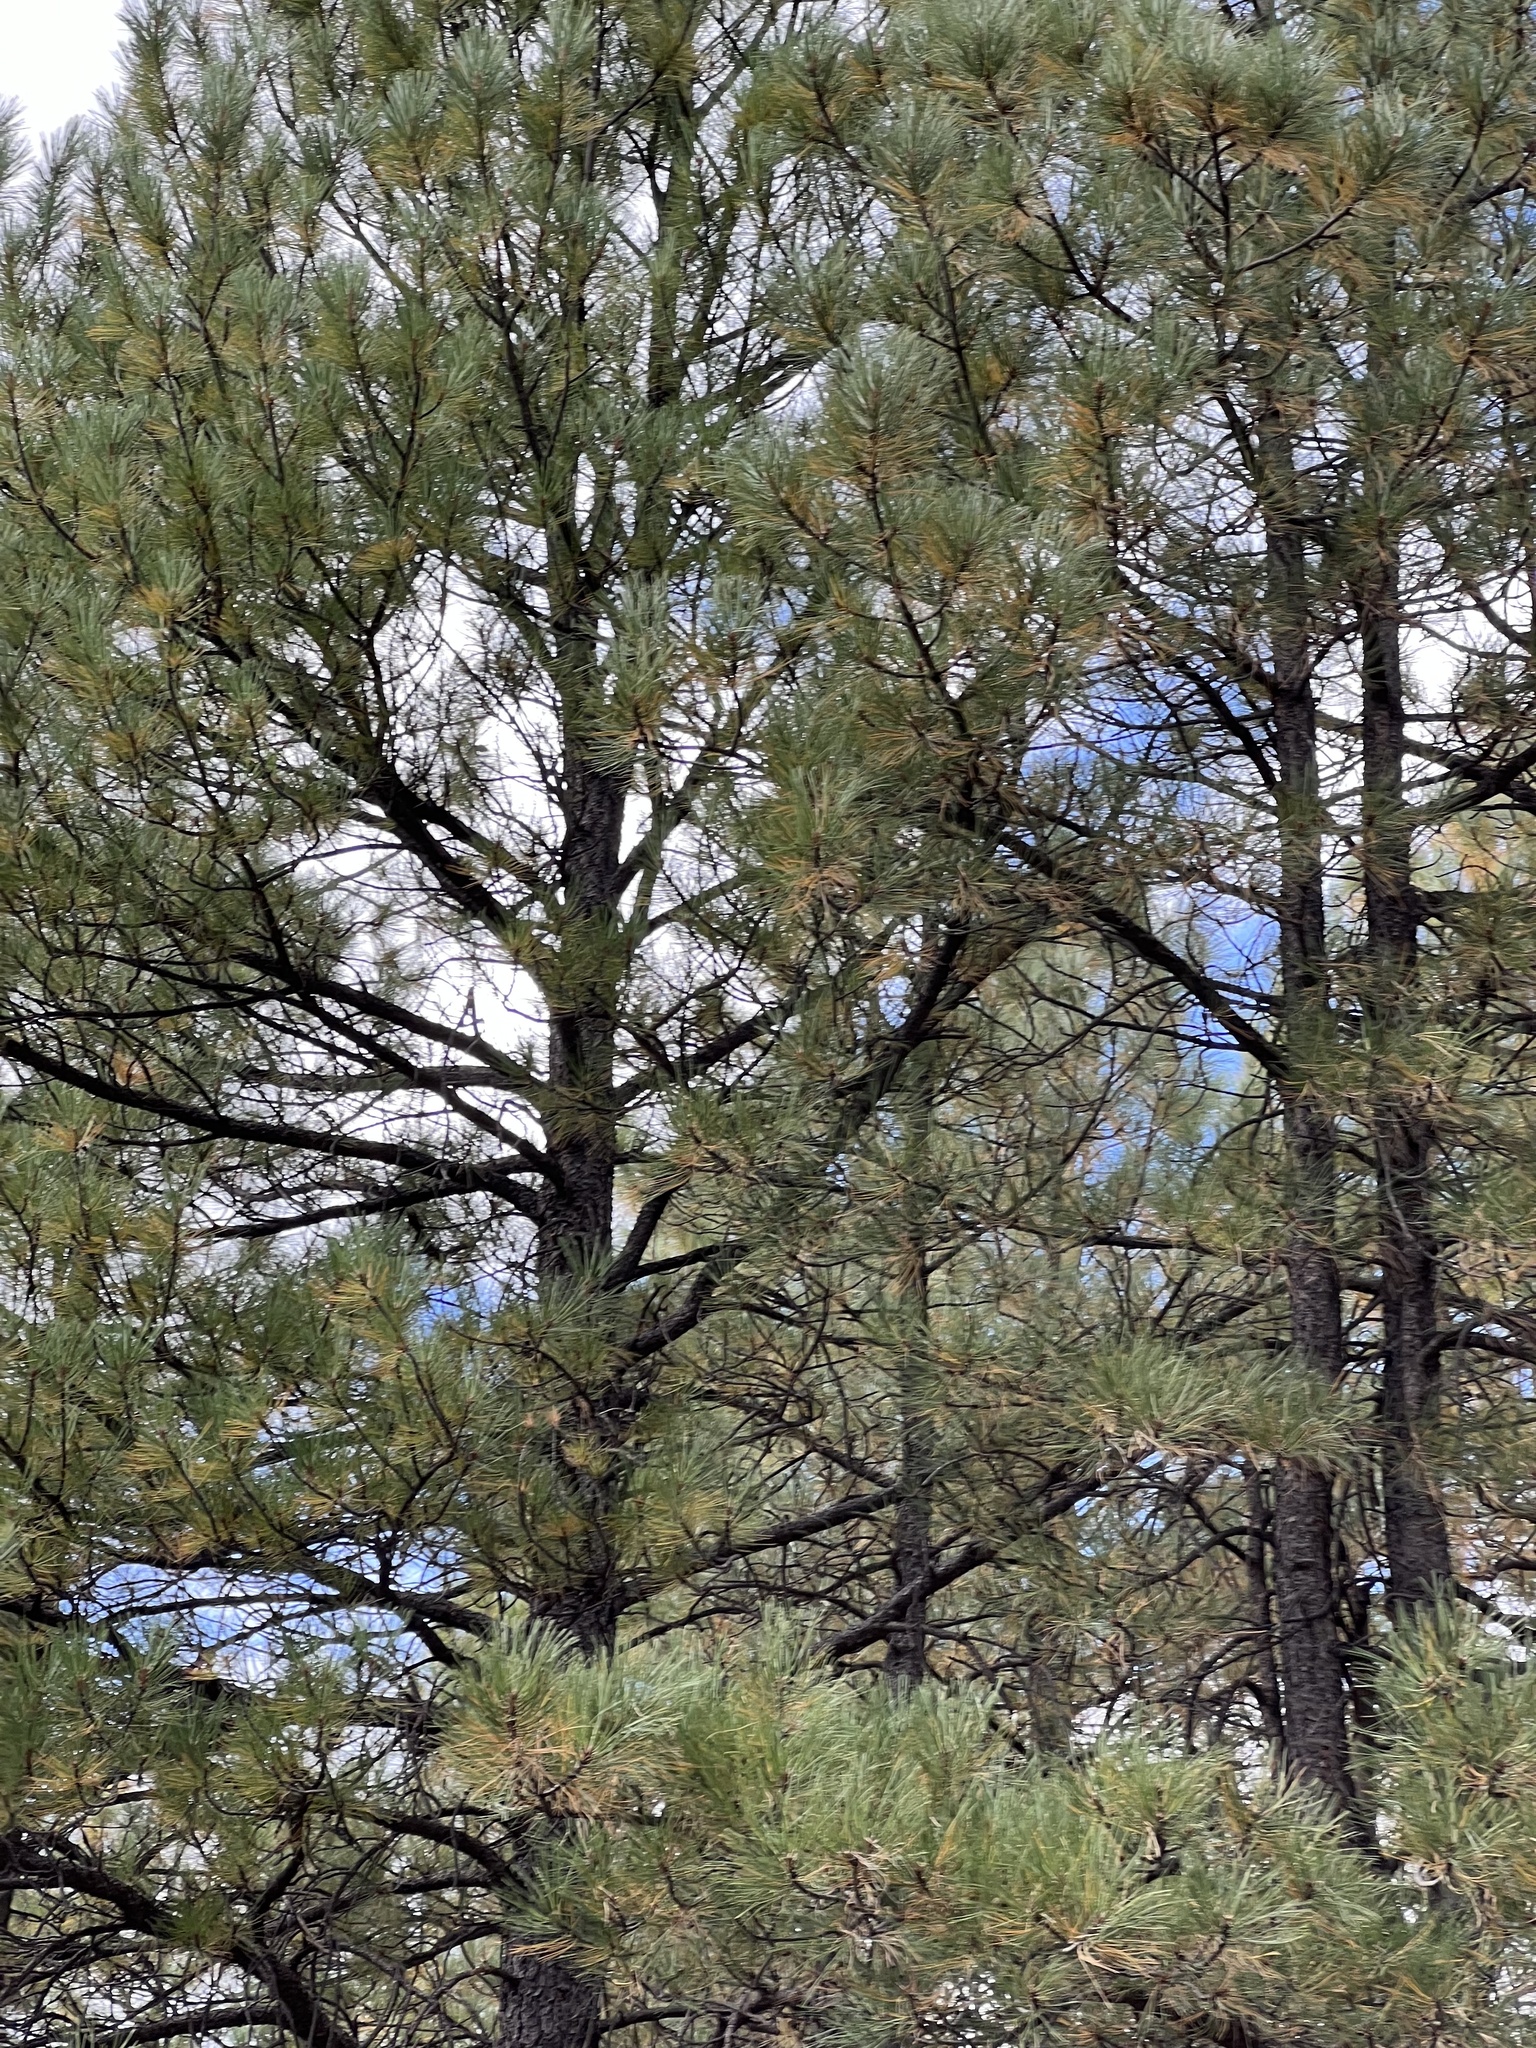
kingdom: Plantae
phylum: Tracheophyta
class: Pinopsida
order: Pinales
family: Pinaceae
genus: Pinus
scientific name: Pinus ponderosa
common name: Western yellow-pine
